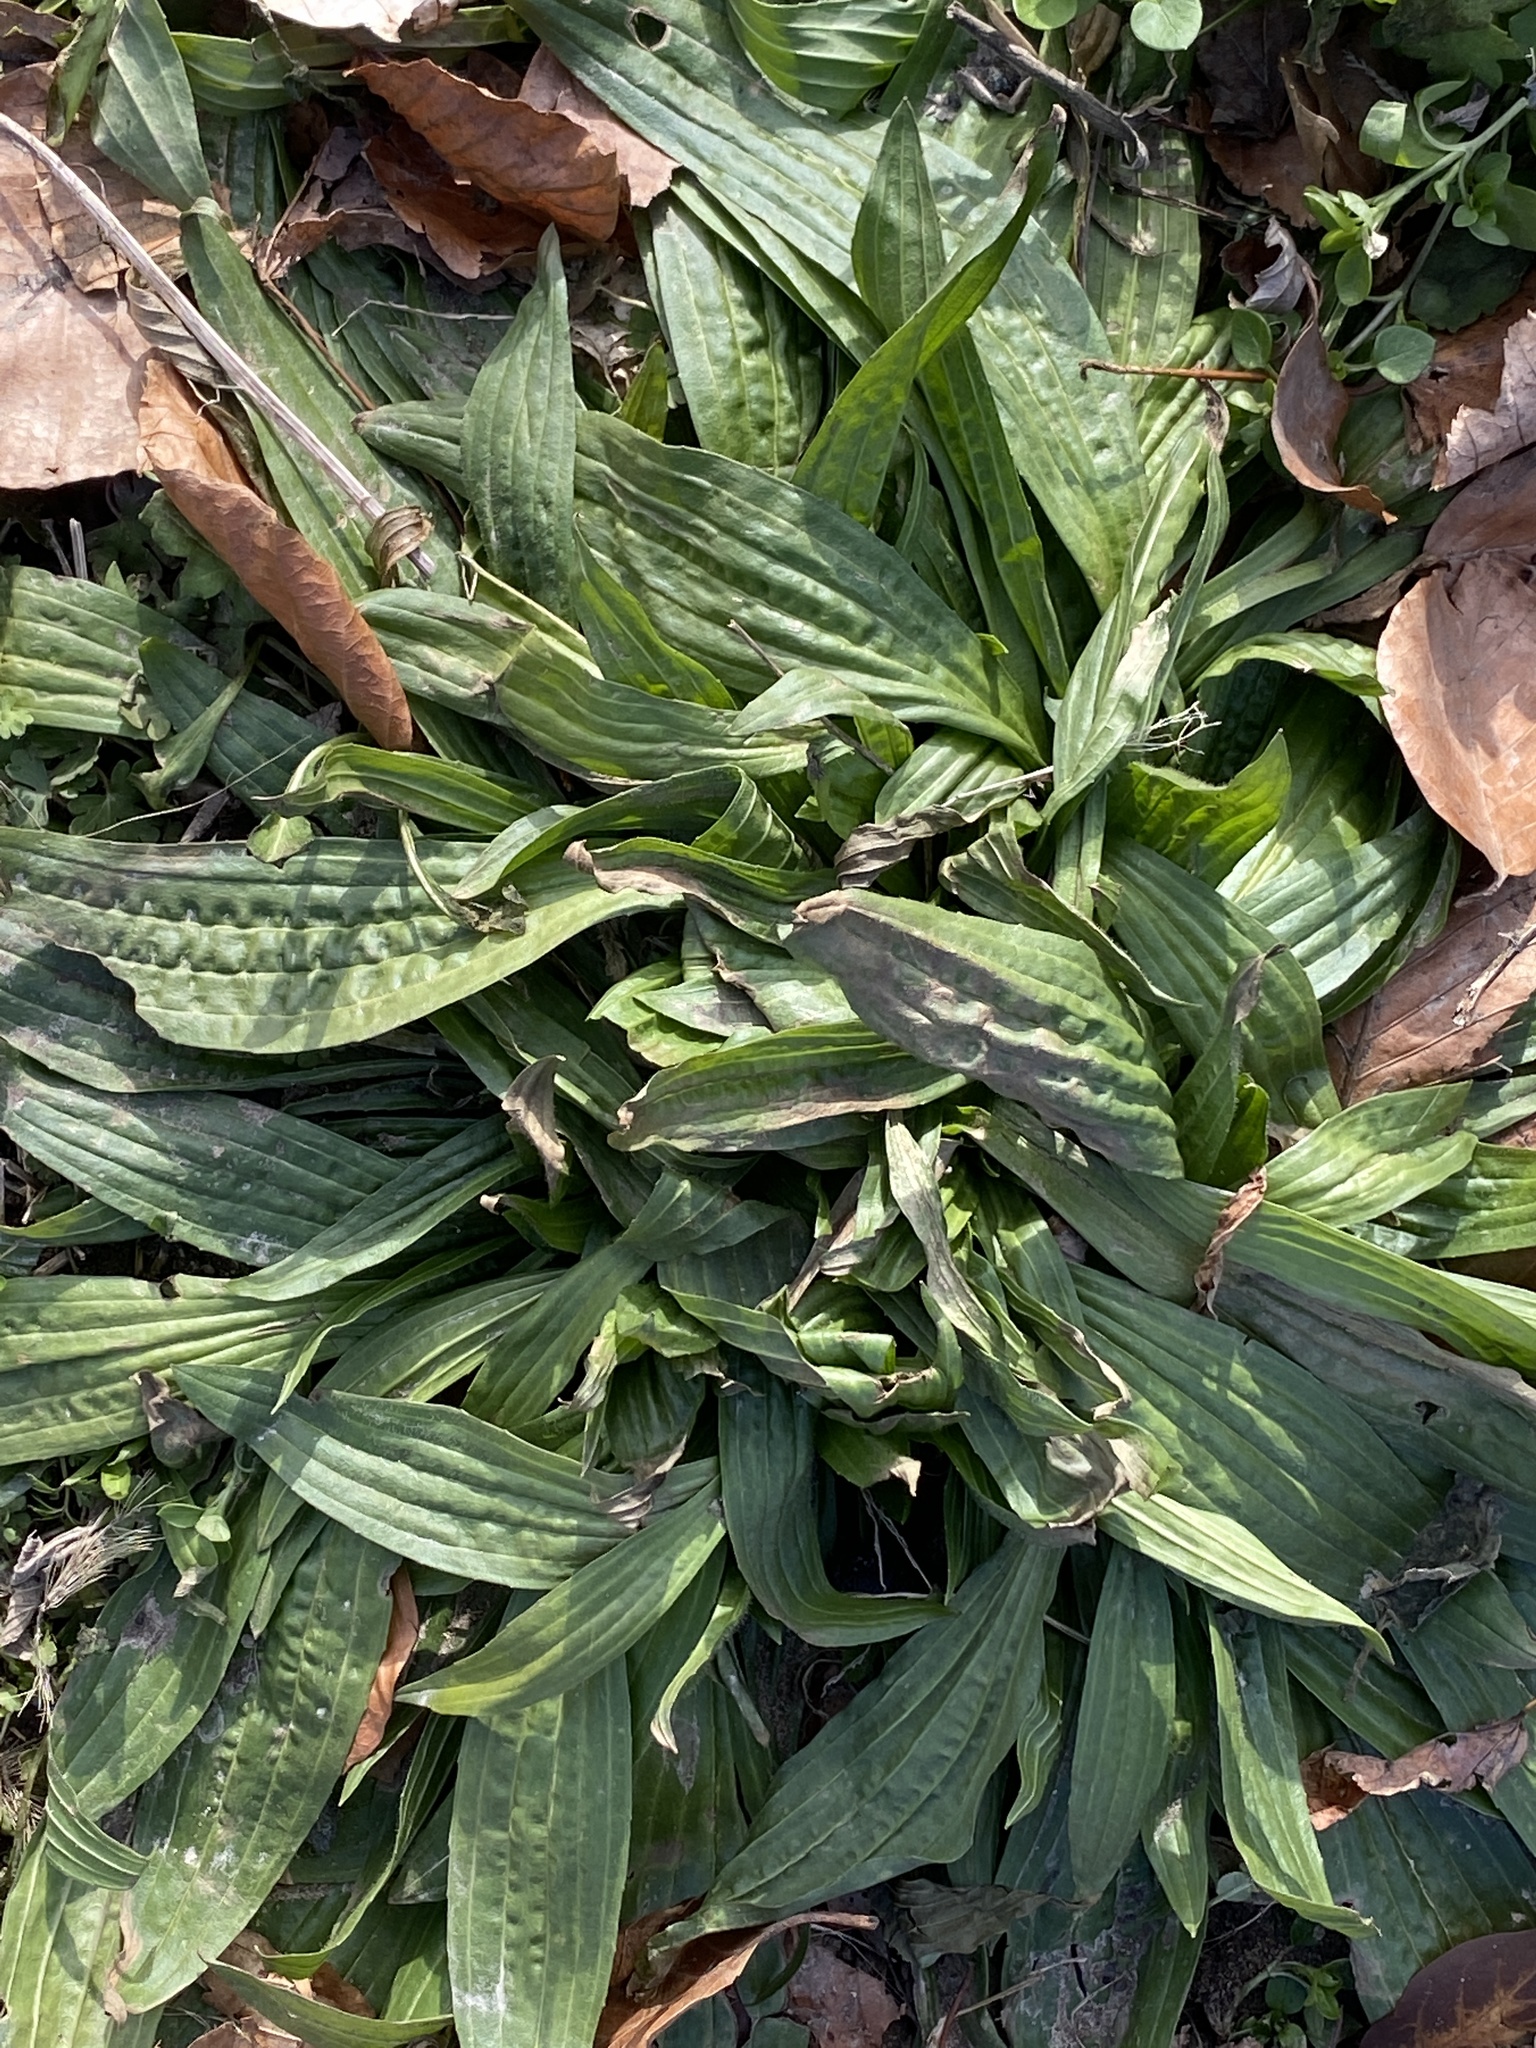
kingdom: Plantae
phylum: Tracheophyta
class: Magnoliopsida
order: Lamiales
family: Plantaginaceae
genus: Plantago
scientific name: Plantago lanceolata
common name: Ribwort plantain
